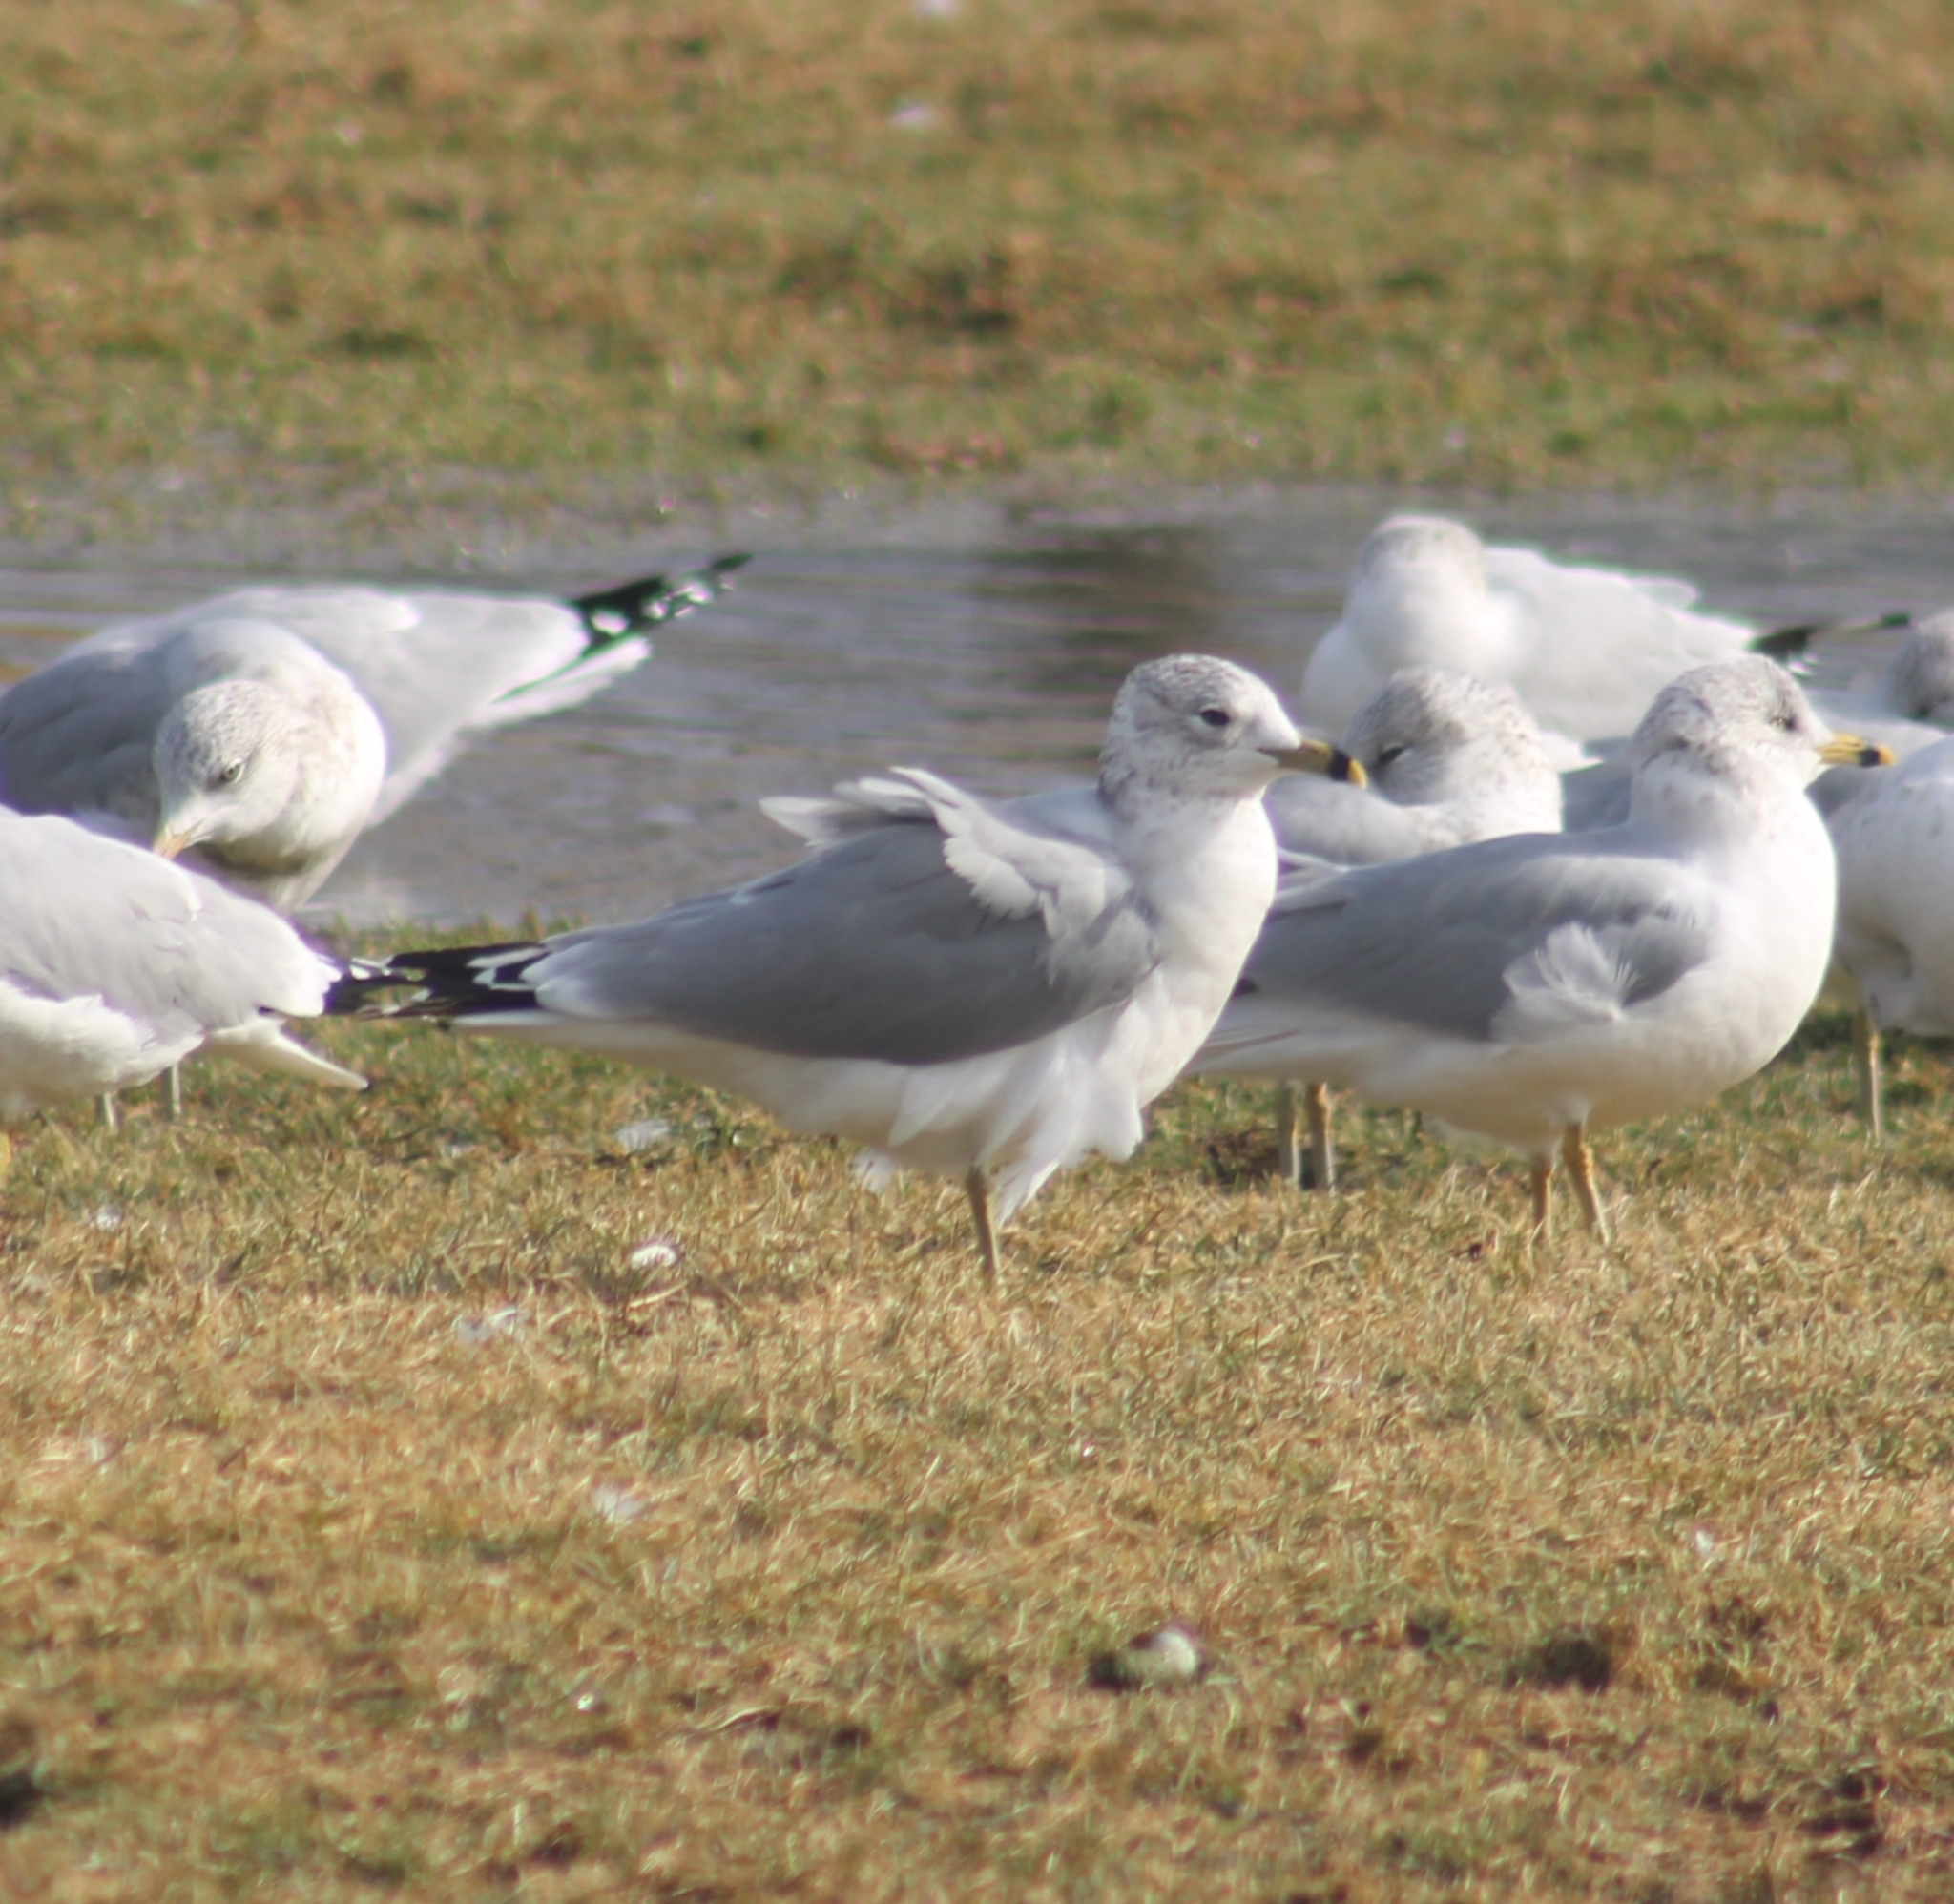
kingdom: Animalia
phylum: Chordata
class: Aves
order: Charadriiformes
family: Laridae
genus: Larus
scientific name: Larus delawarensis
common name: Ring-billed gull
